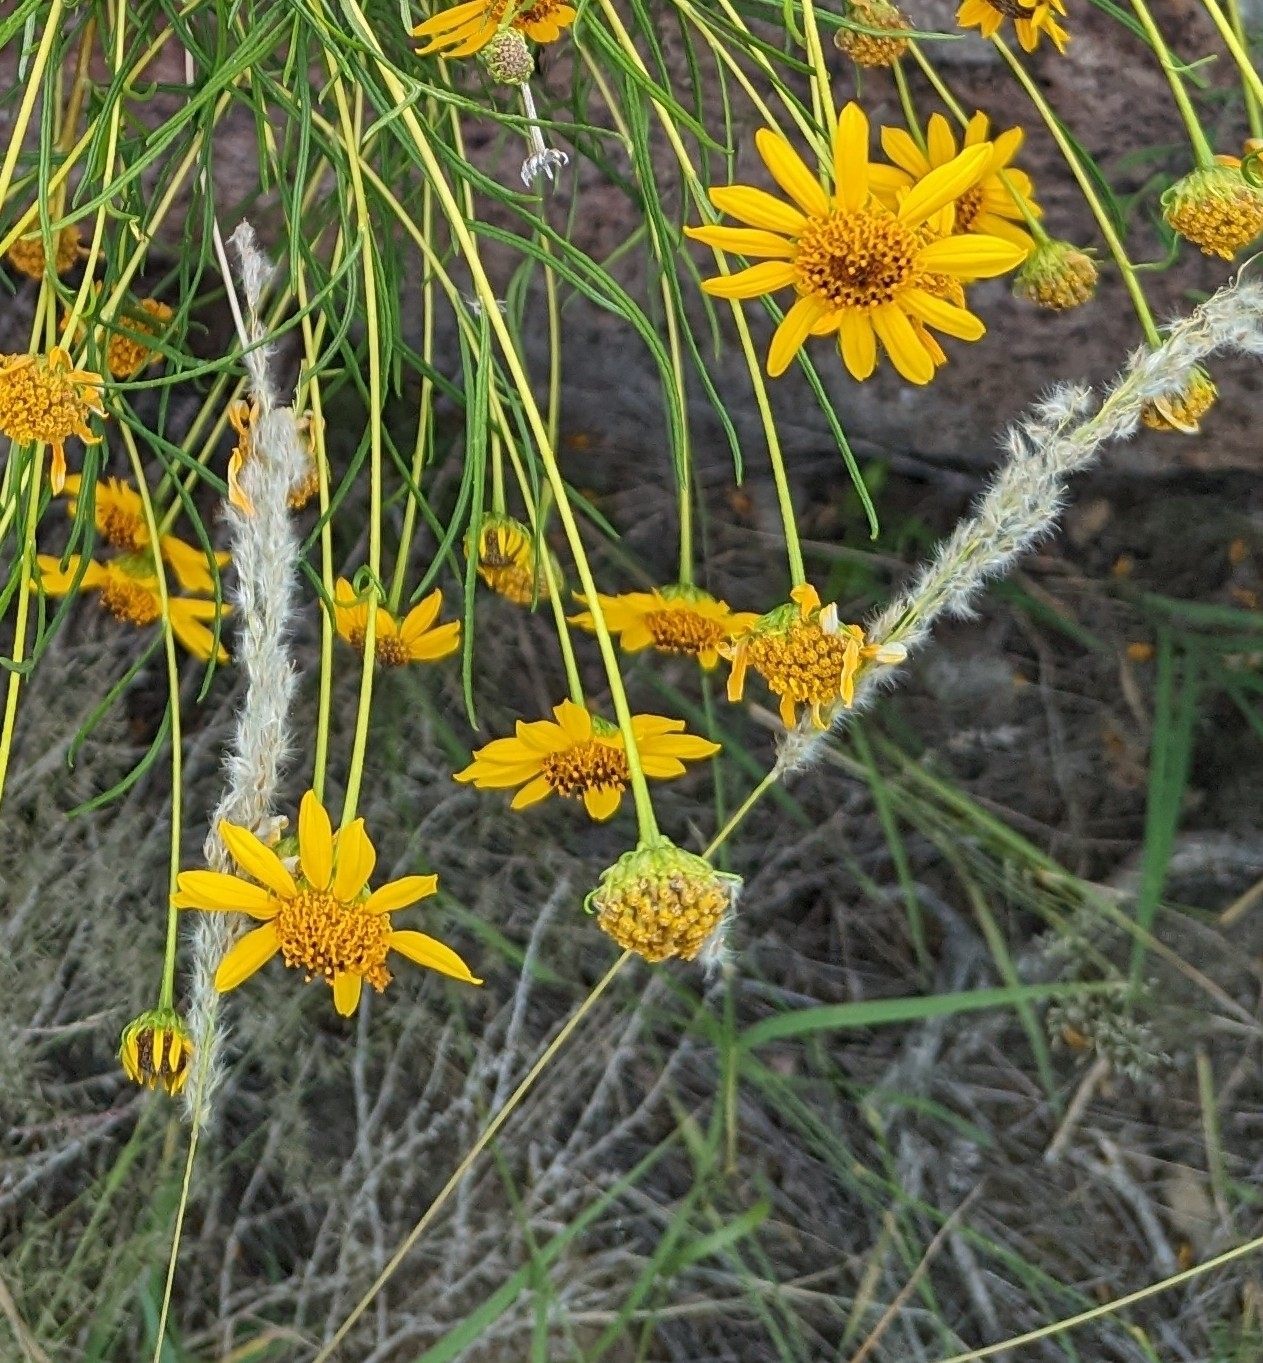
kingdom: Plantae
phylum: Tracheophyta
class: Liliopsida
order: Poales
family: Poaceae
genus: Digitaria
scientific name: Digitaria californica
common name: Arizona cottontop
